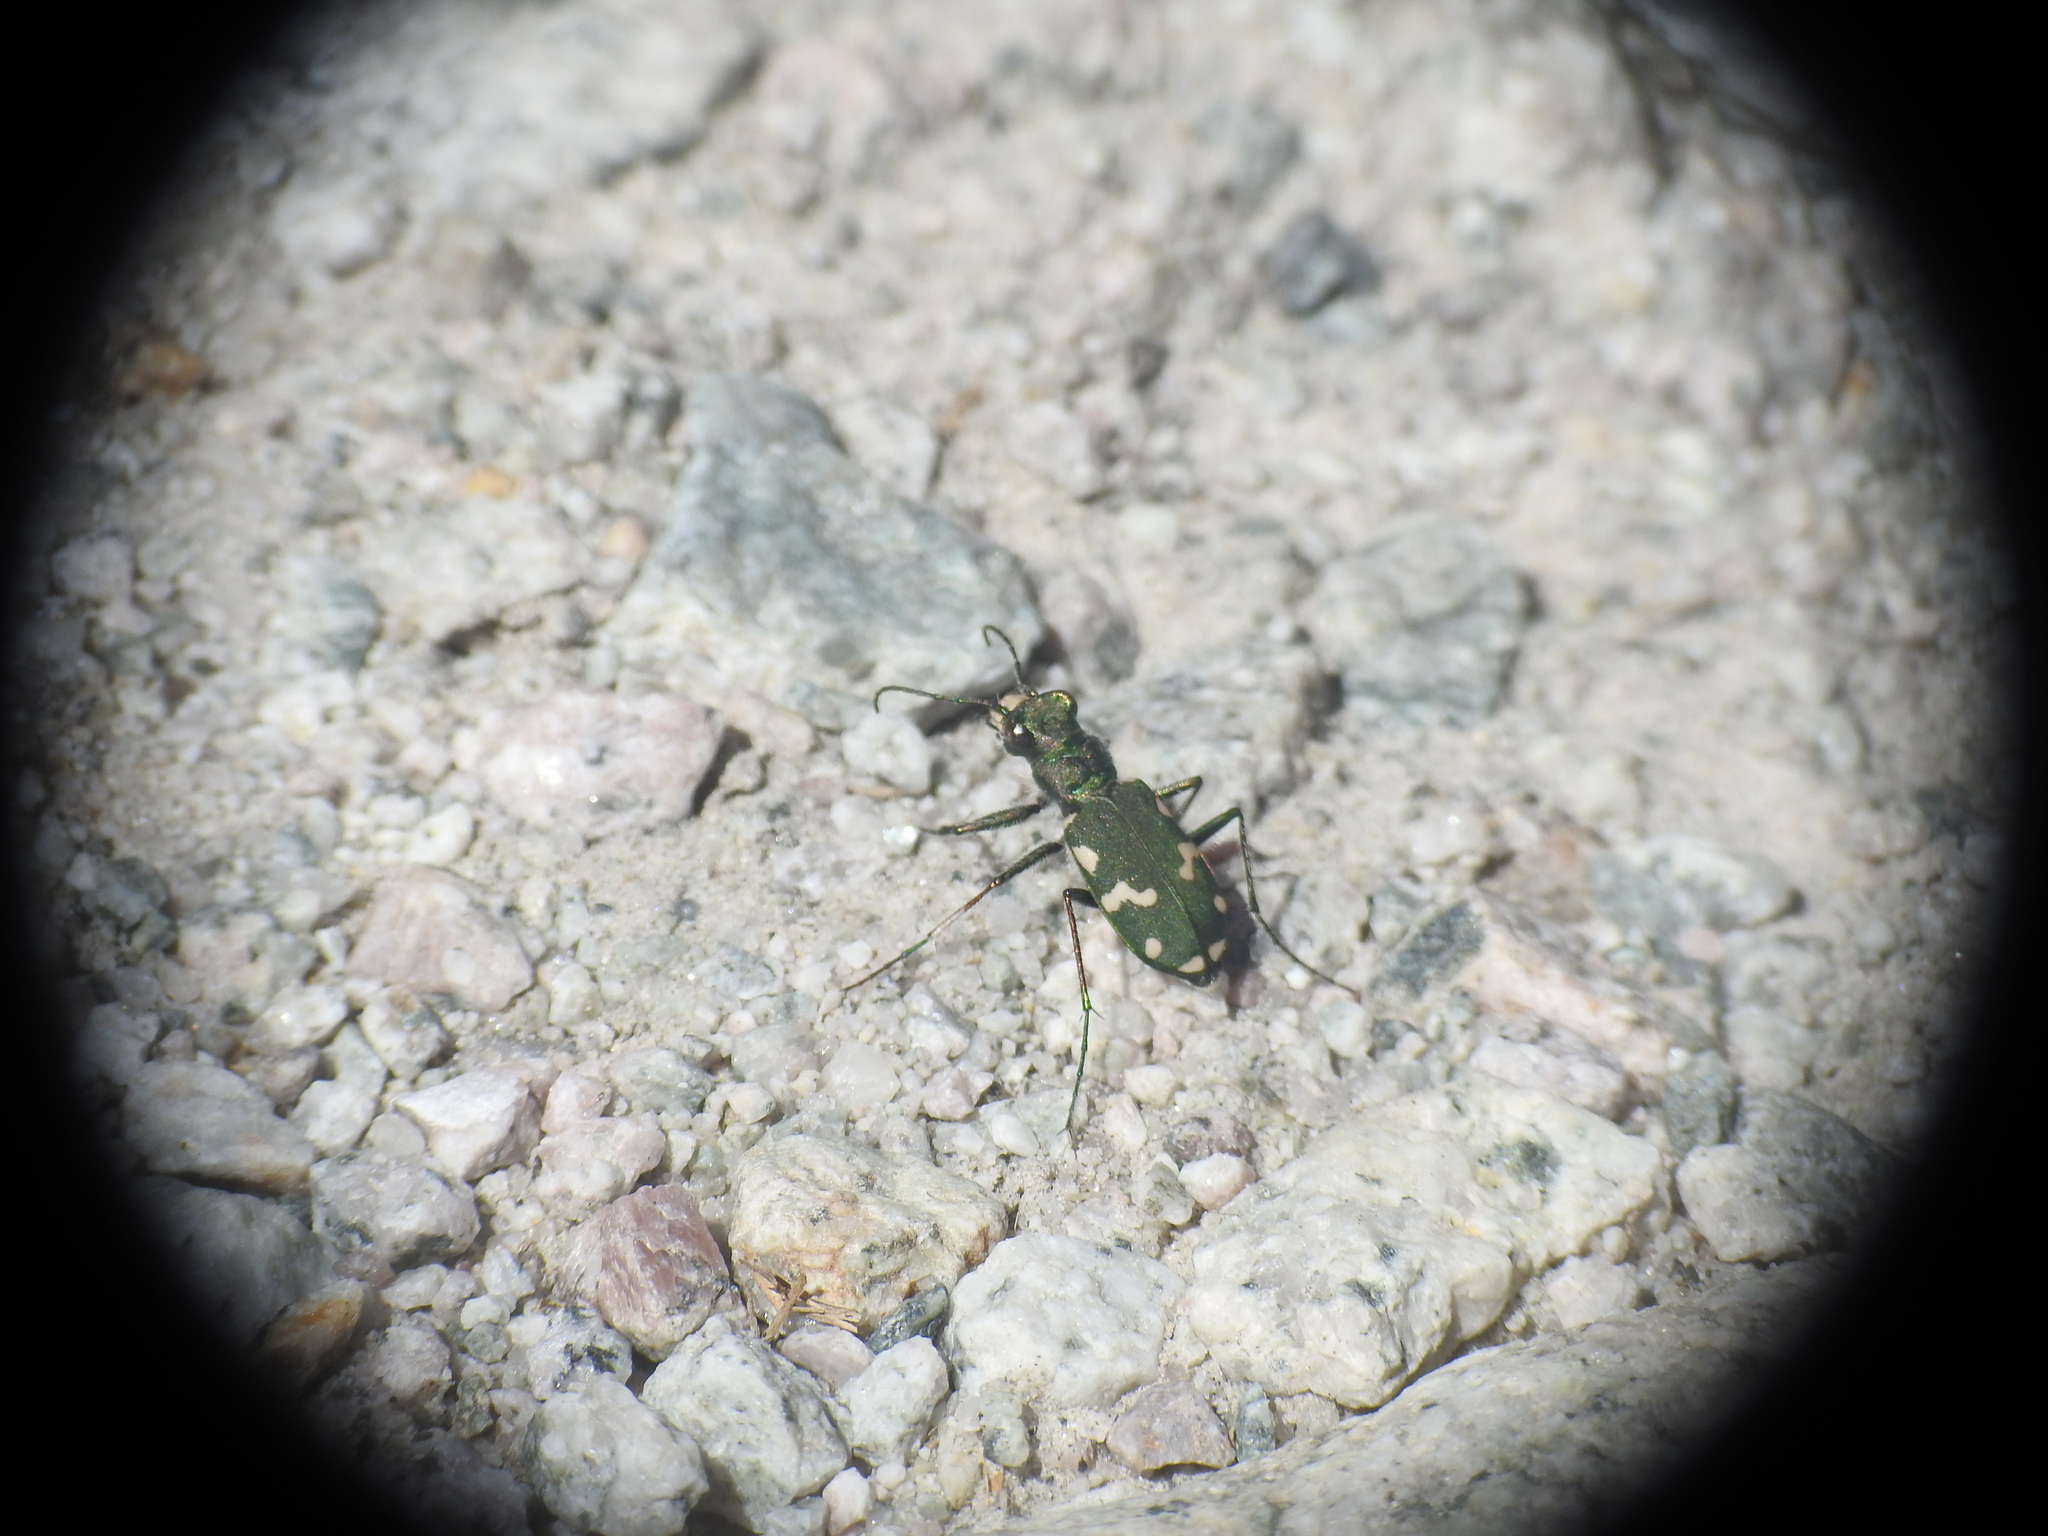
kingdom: Animalia
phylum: Arthropoda
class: Insecta
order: Coleoptera
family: Carabidae
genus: Cicindela
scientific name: Cicindela gallica
